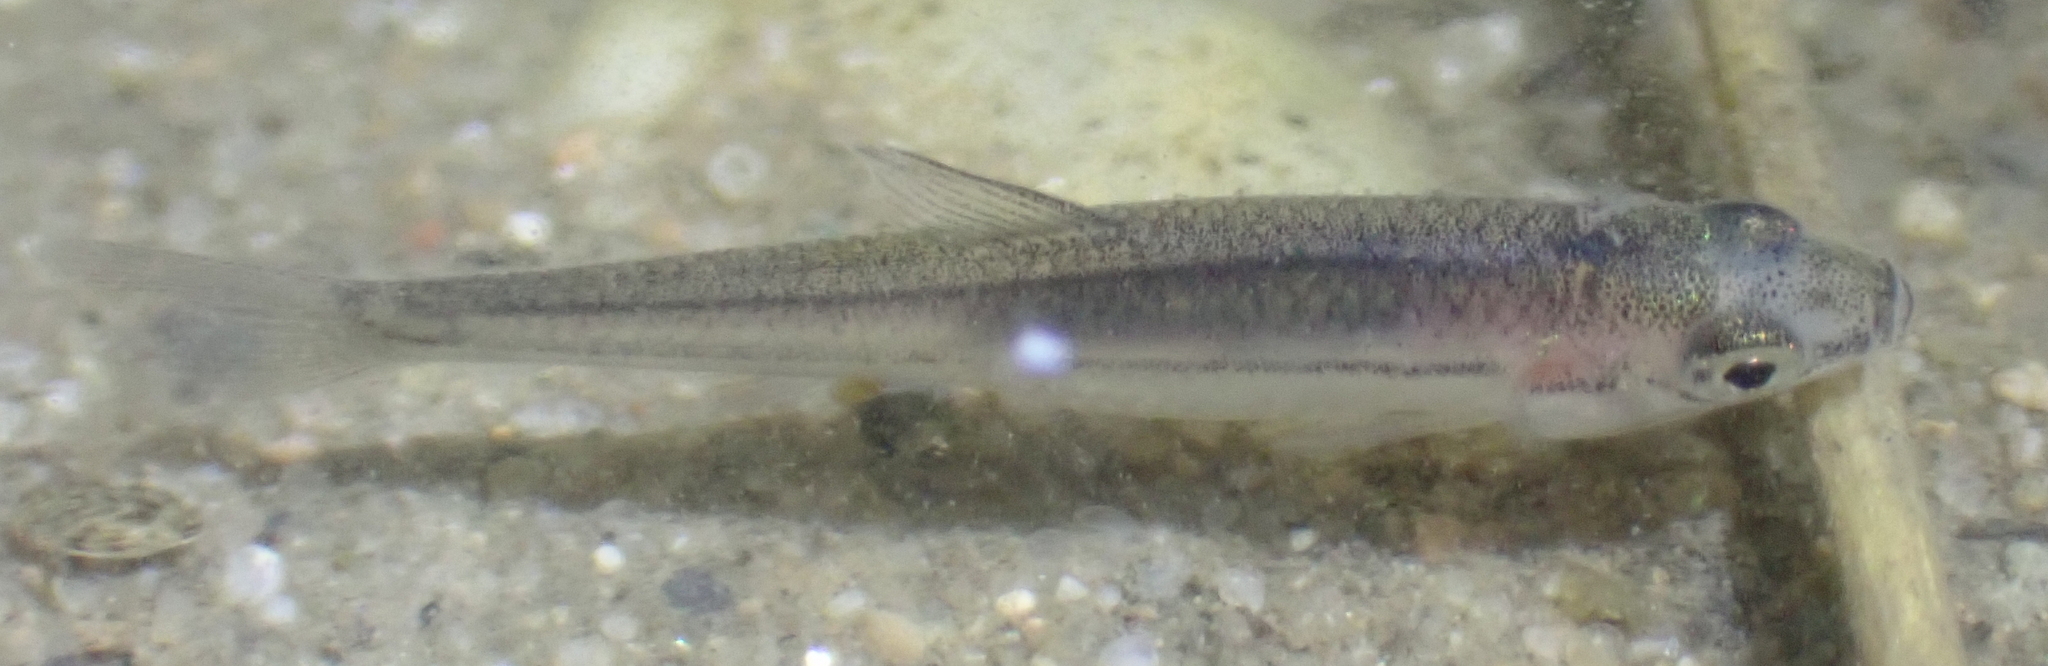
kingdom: Animalia
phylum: Chordata
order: Cypriniformes
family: Cyprinidae
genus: Pseudorasbora
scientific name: Pseudorasbora parva
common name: Topmouth gudgeon
